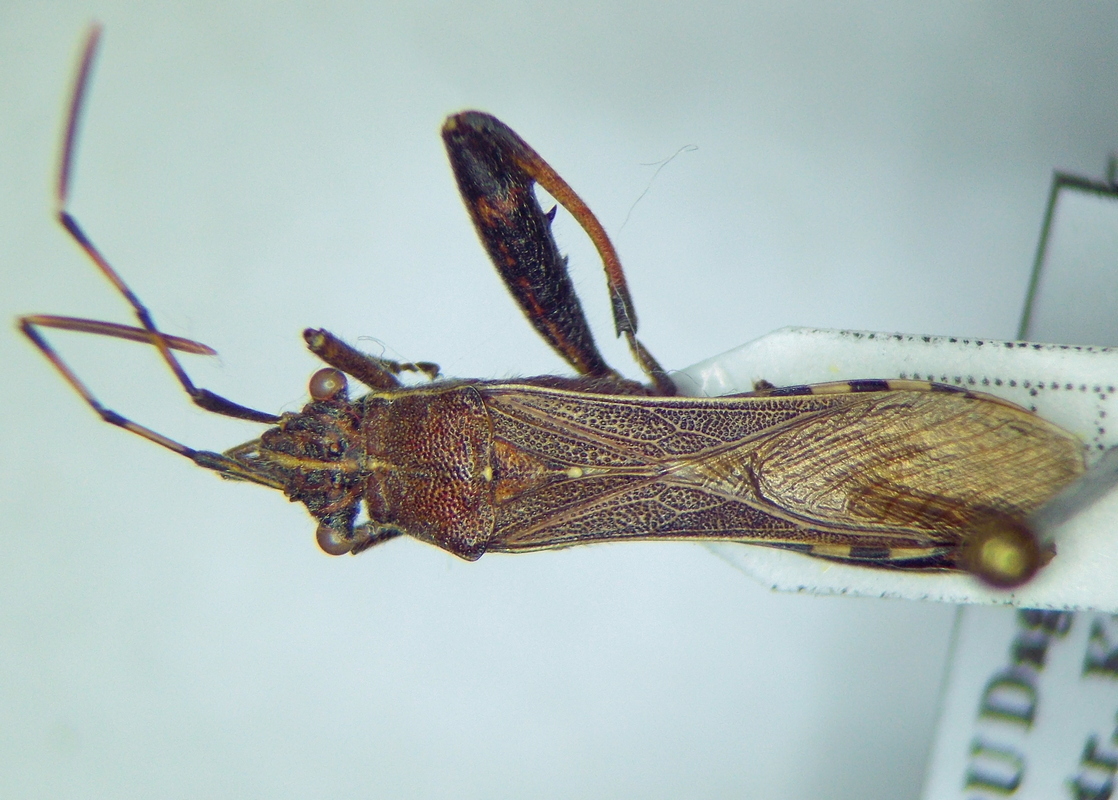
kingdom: Animalia
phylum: Arthropoda
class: Insecta
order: Hemiptera
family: Alydidae
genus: Camptopus
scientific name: Camptopus lateralis
